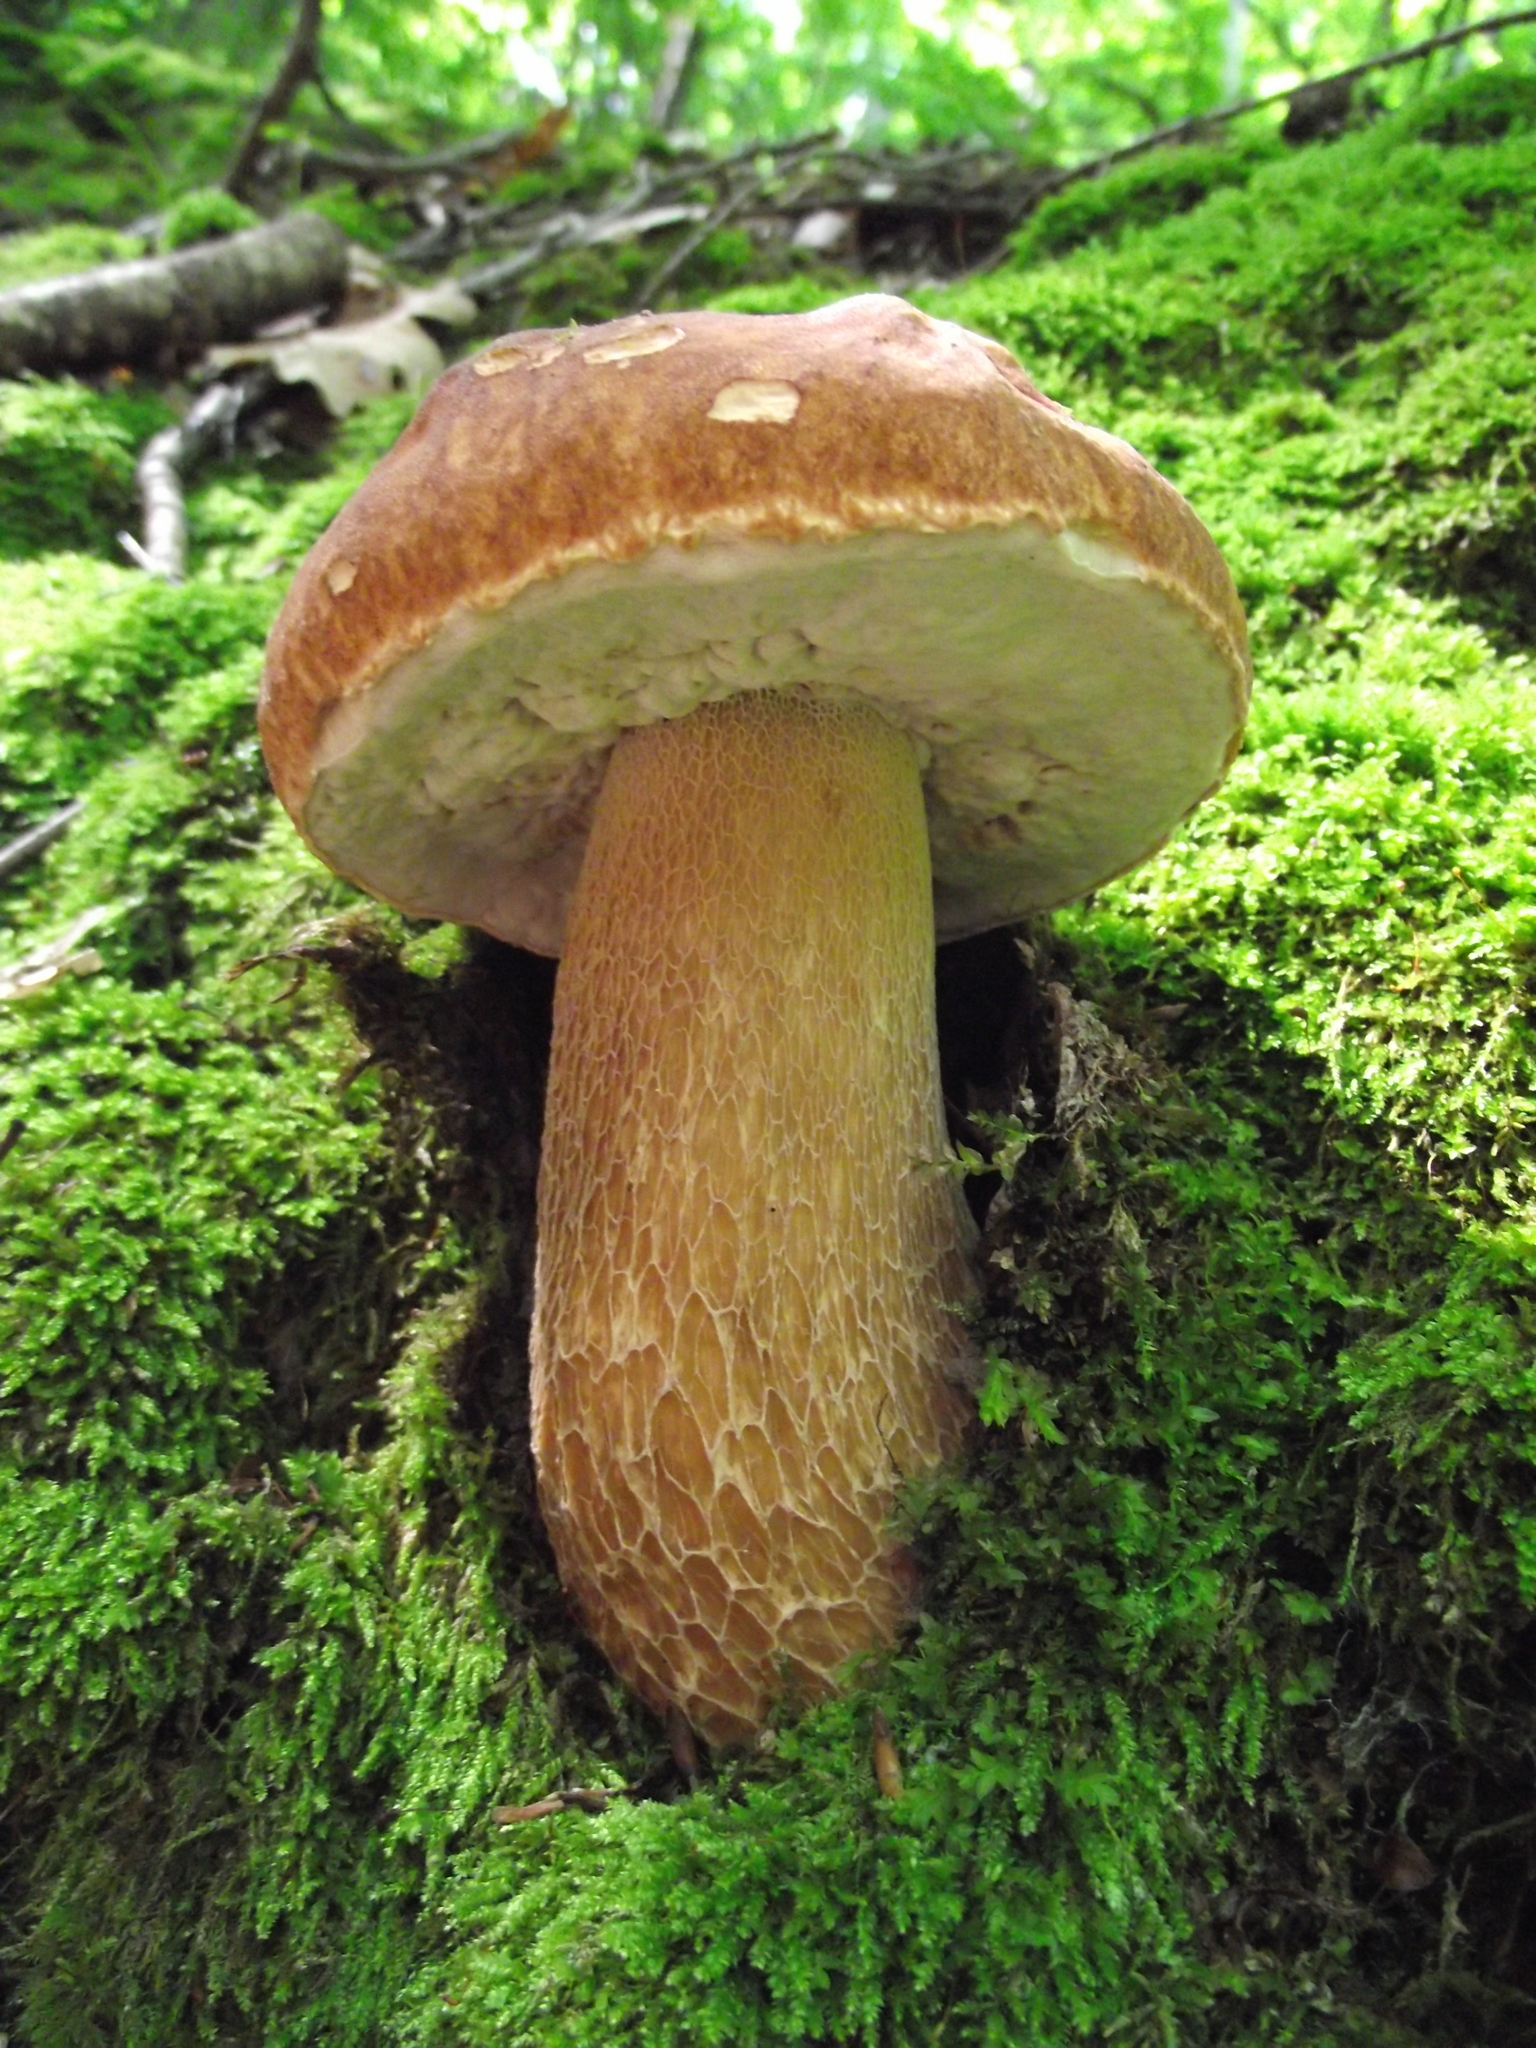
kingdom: Fungi
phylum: Basidiomycota
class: Agaricomycetes
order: Boletales
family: Boletaceae
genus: Boletus
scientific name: Boletus reticulatus
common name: Summer bolete
